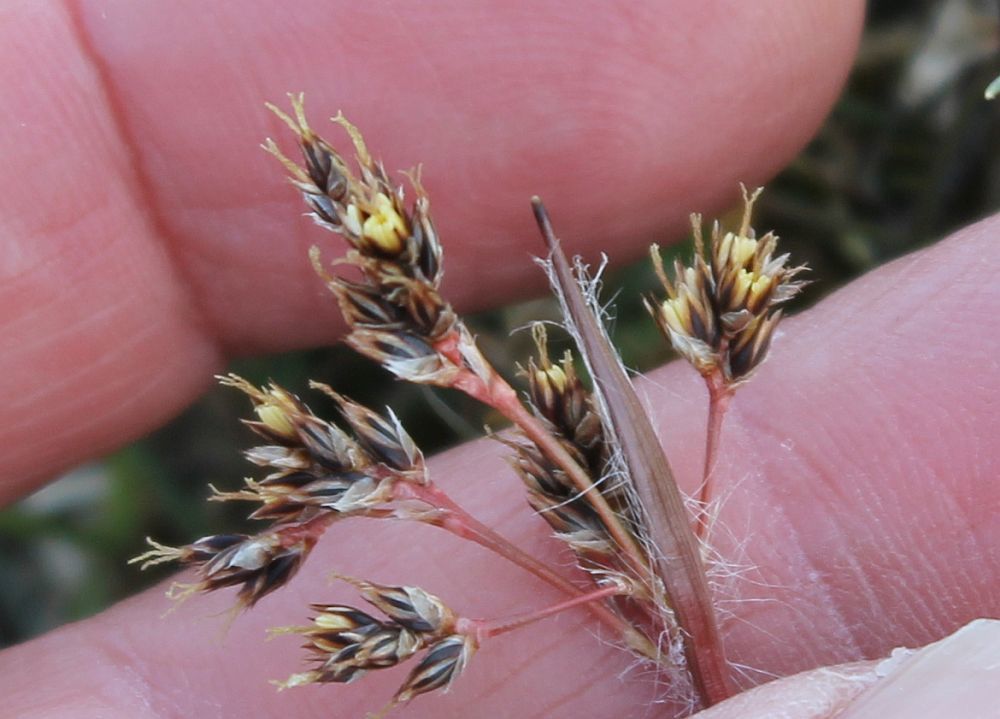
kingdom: Plantae
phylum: Tracheophyta
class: Liliopsida
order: Poales
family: Juncaceae
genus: Luzula
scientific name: Luzula campestris
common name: Field wood-rush
